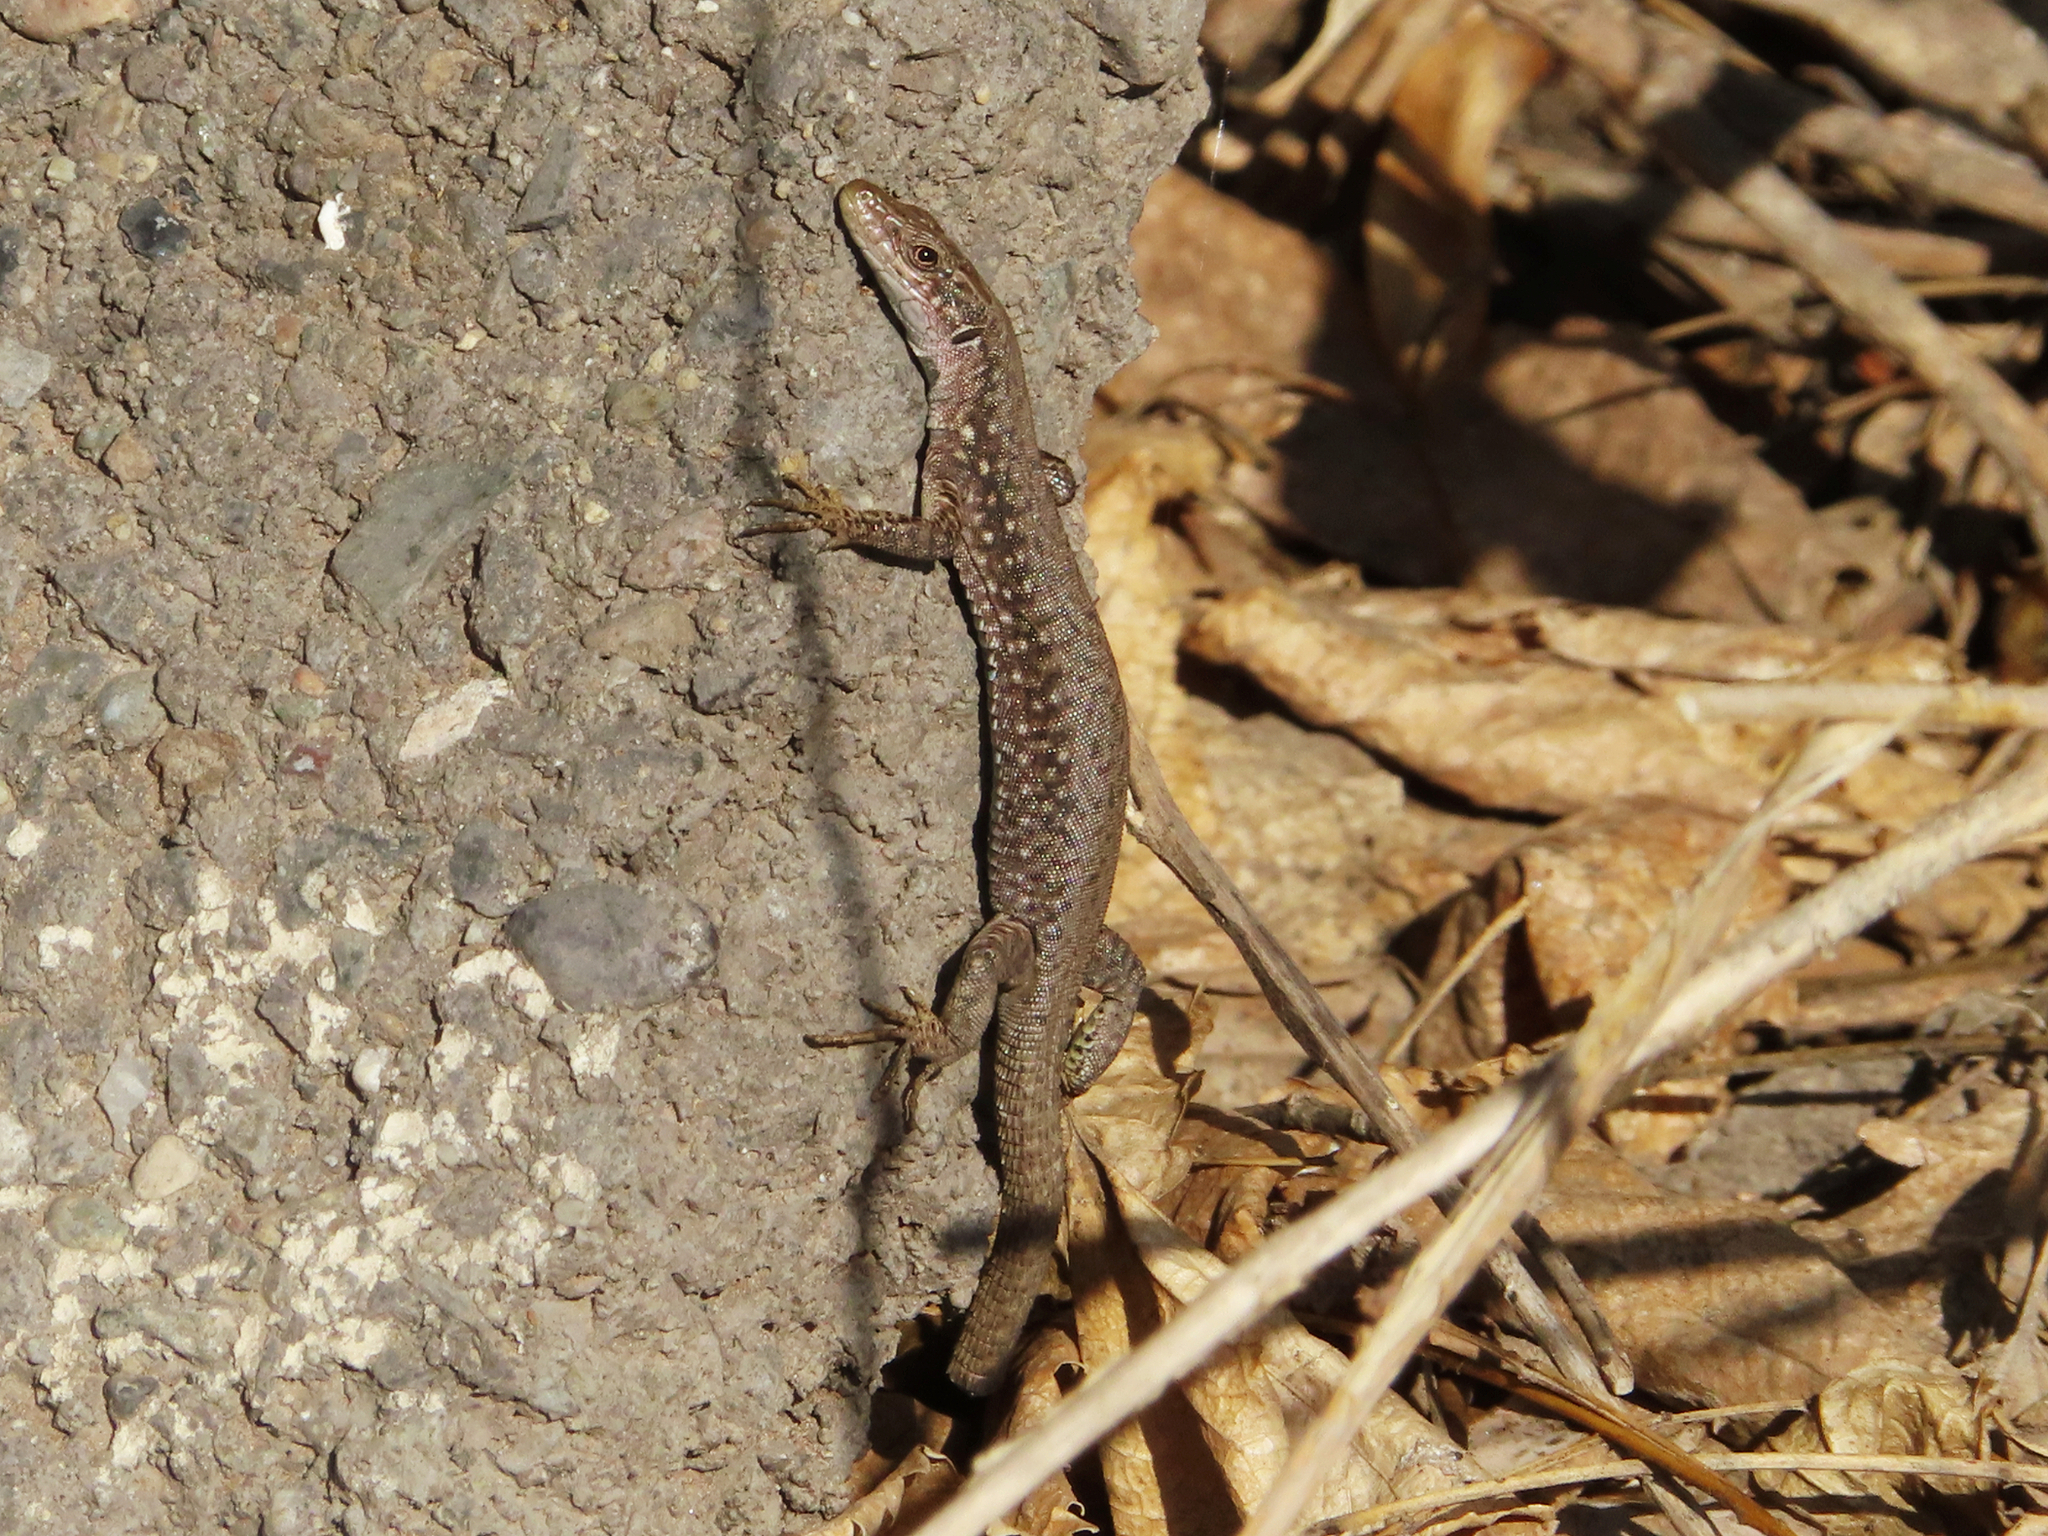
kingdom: Animalia
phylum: Chordata
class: Squamata
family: Lacertidae
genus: Darevskia
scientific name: Darevskia
